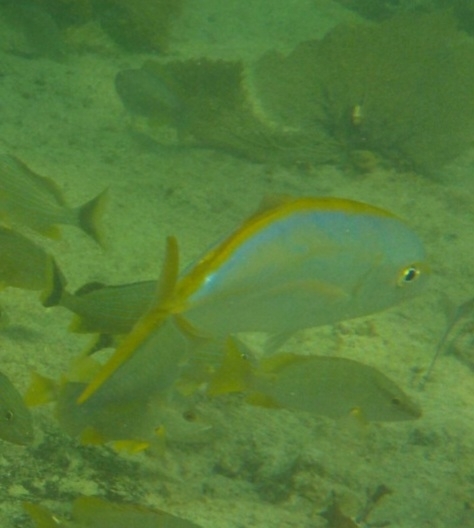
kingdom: Animalia
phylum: Chordata
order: Perciformes
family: Carangidae
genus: Carangoides
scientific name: Carangoides bartholomaei
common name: Yellow jack
